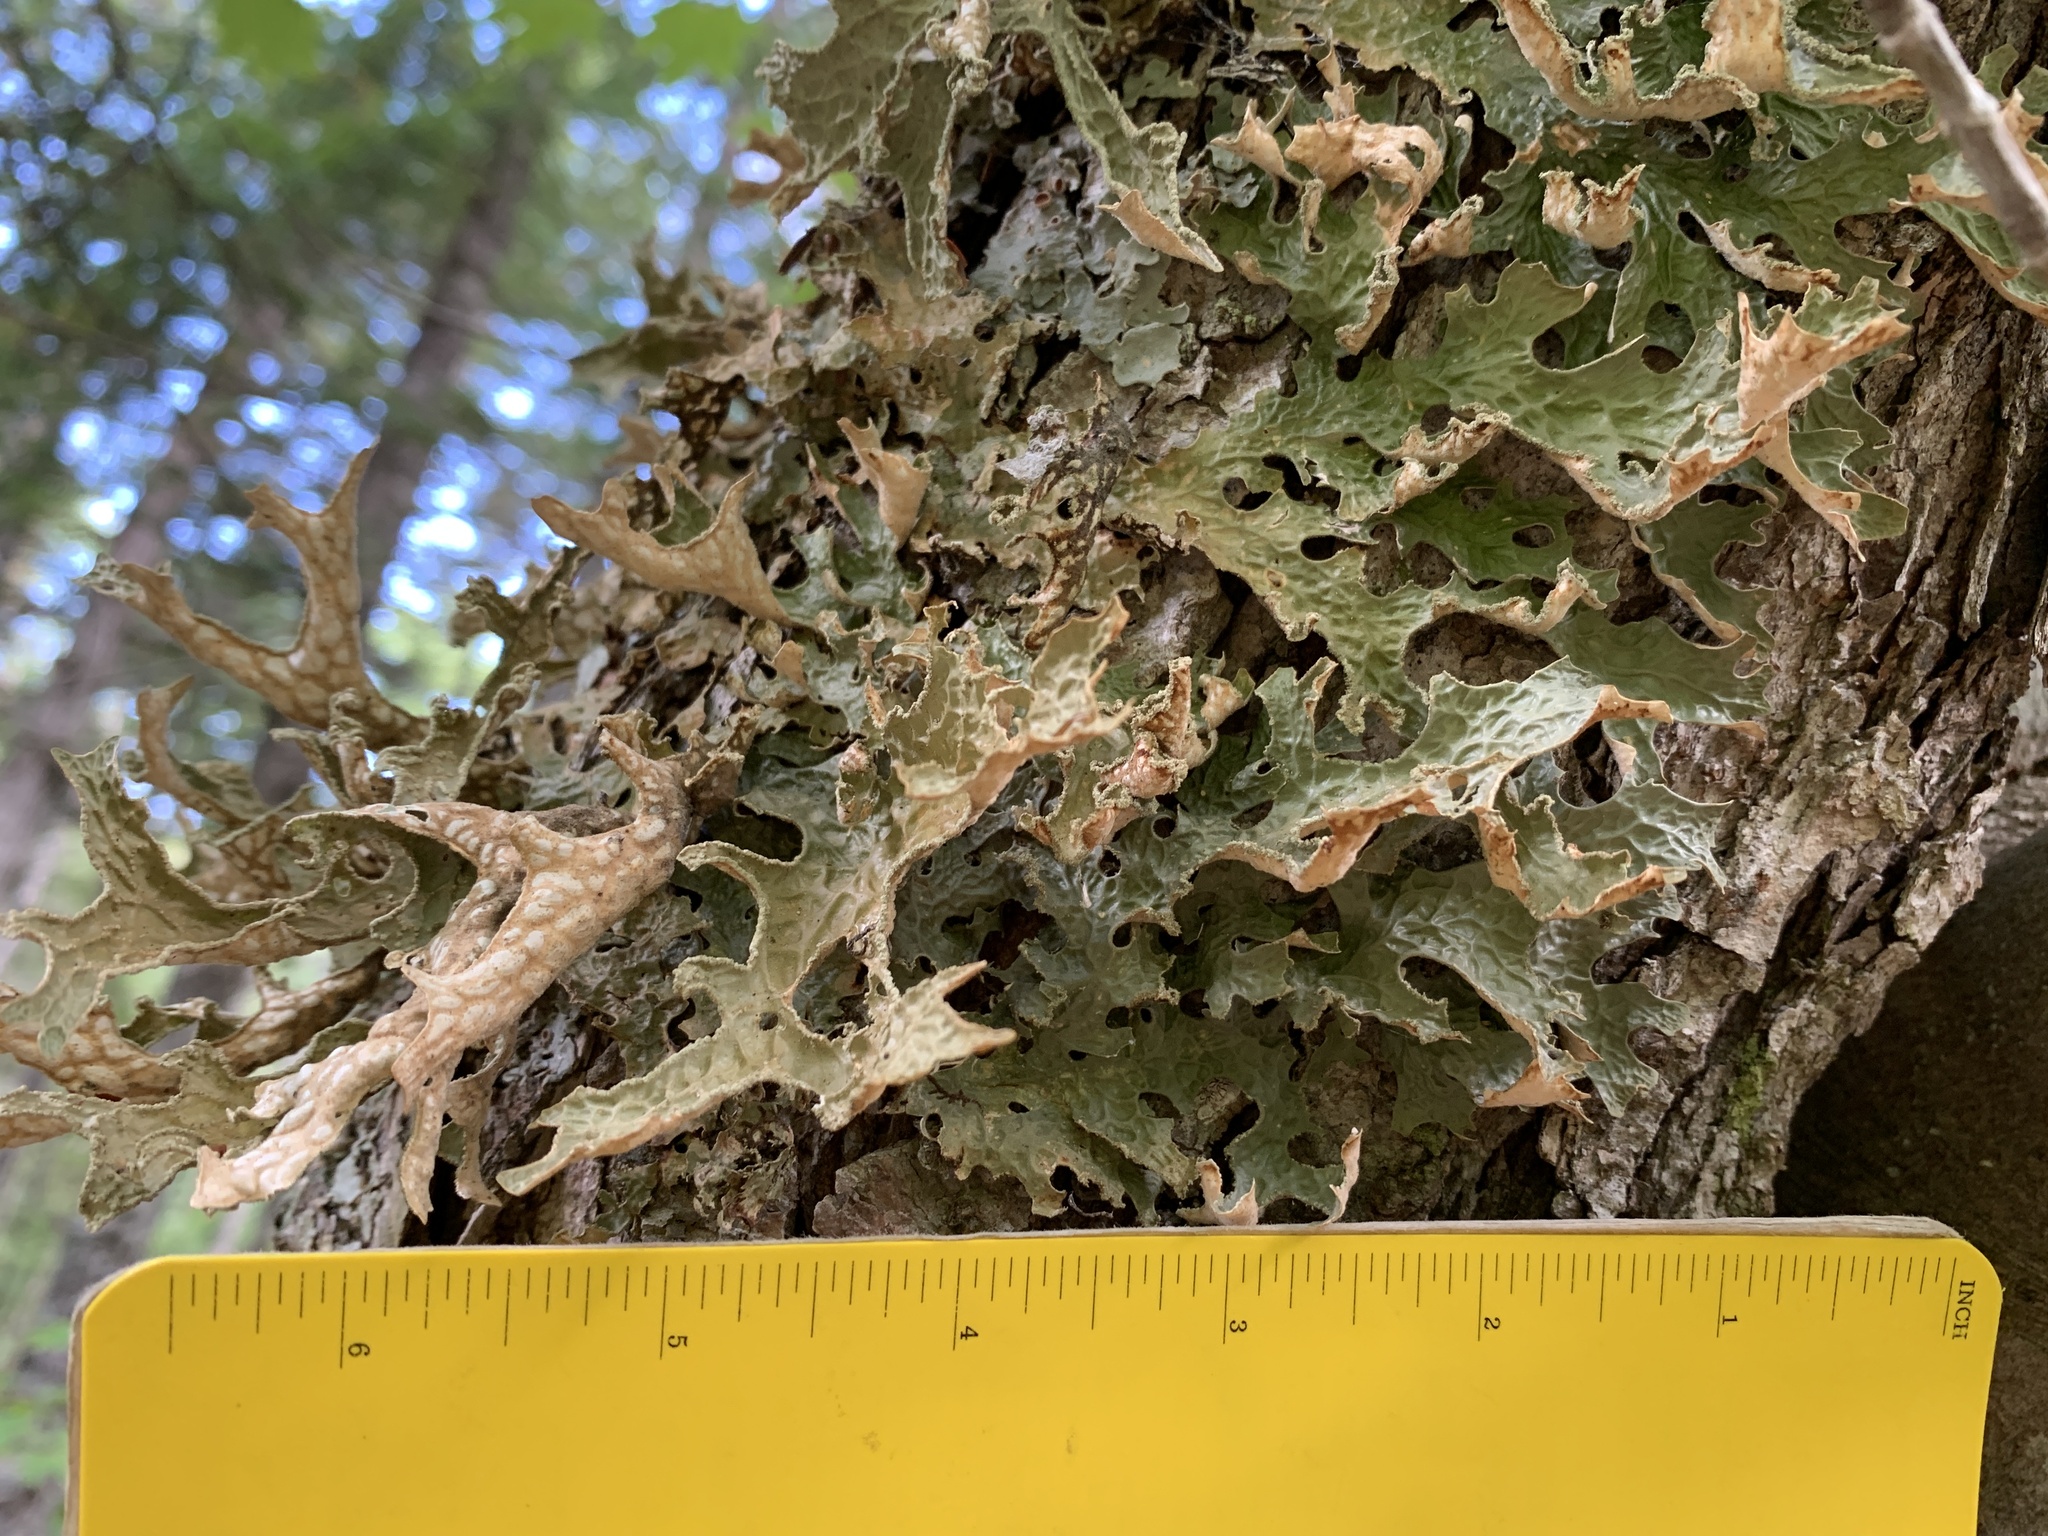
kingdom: Fungi
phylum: Ascomycota
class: Lecanoromycetes
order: Peltigerales
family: Lobariaceae
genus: Lobaria
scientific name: Lobaria pulmonaria
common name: Lungwort
